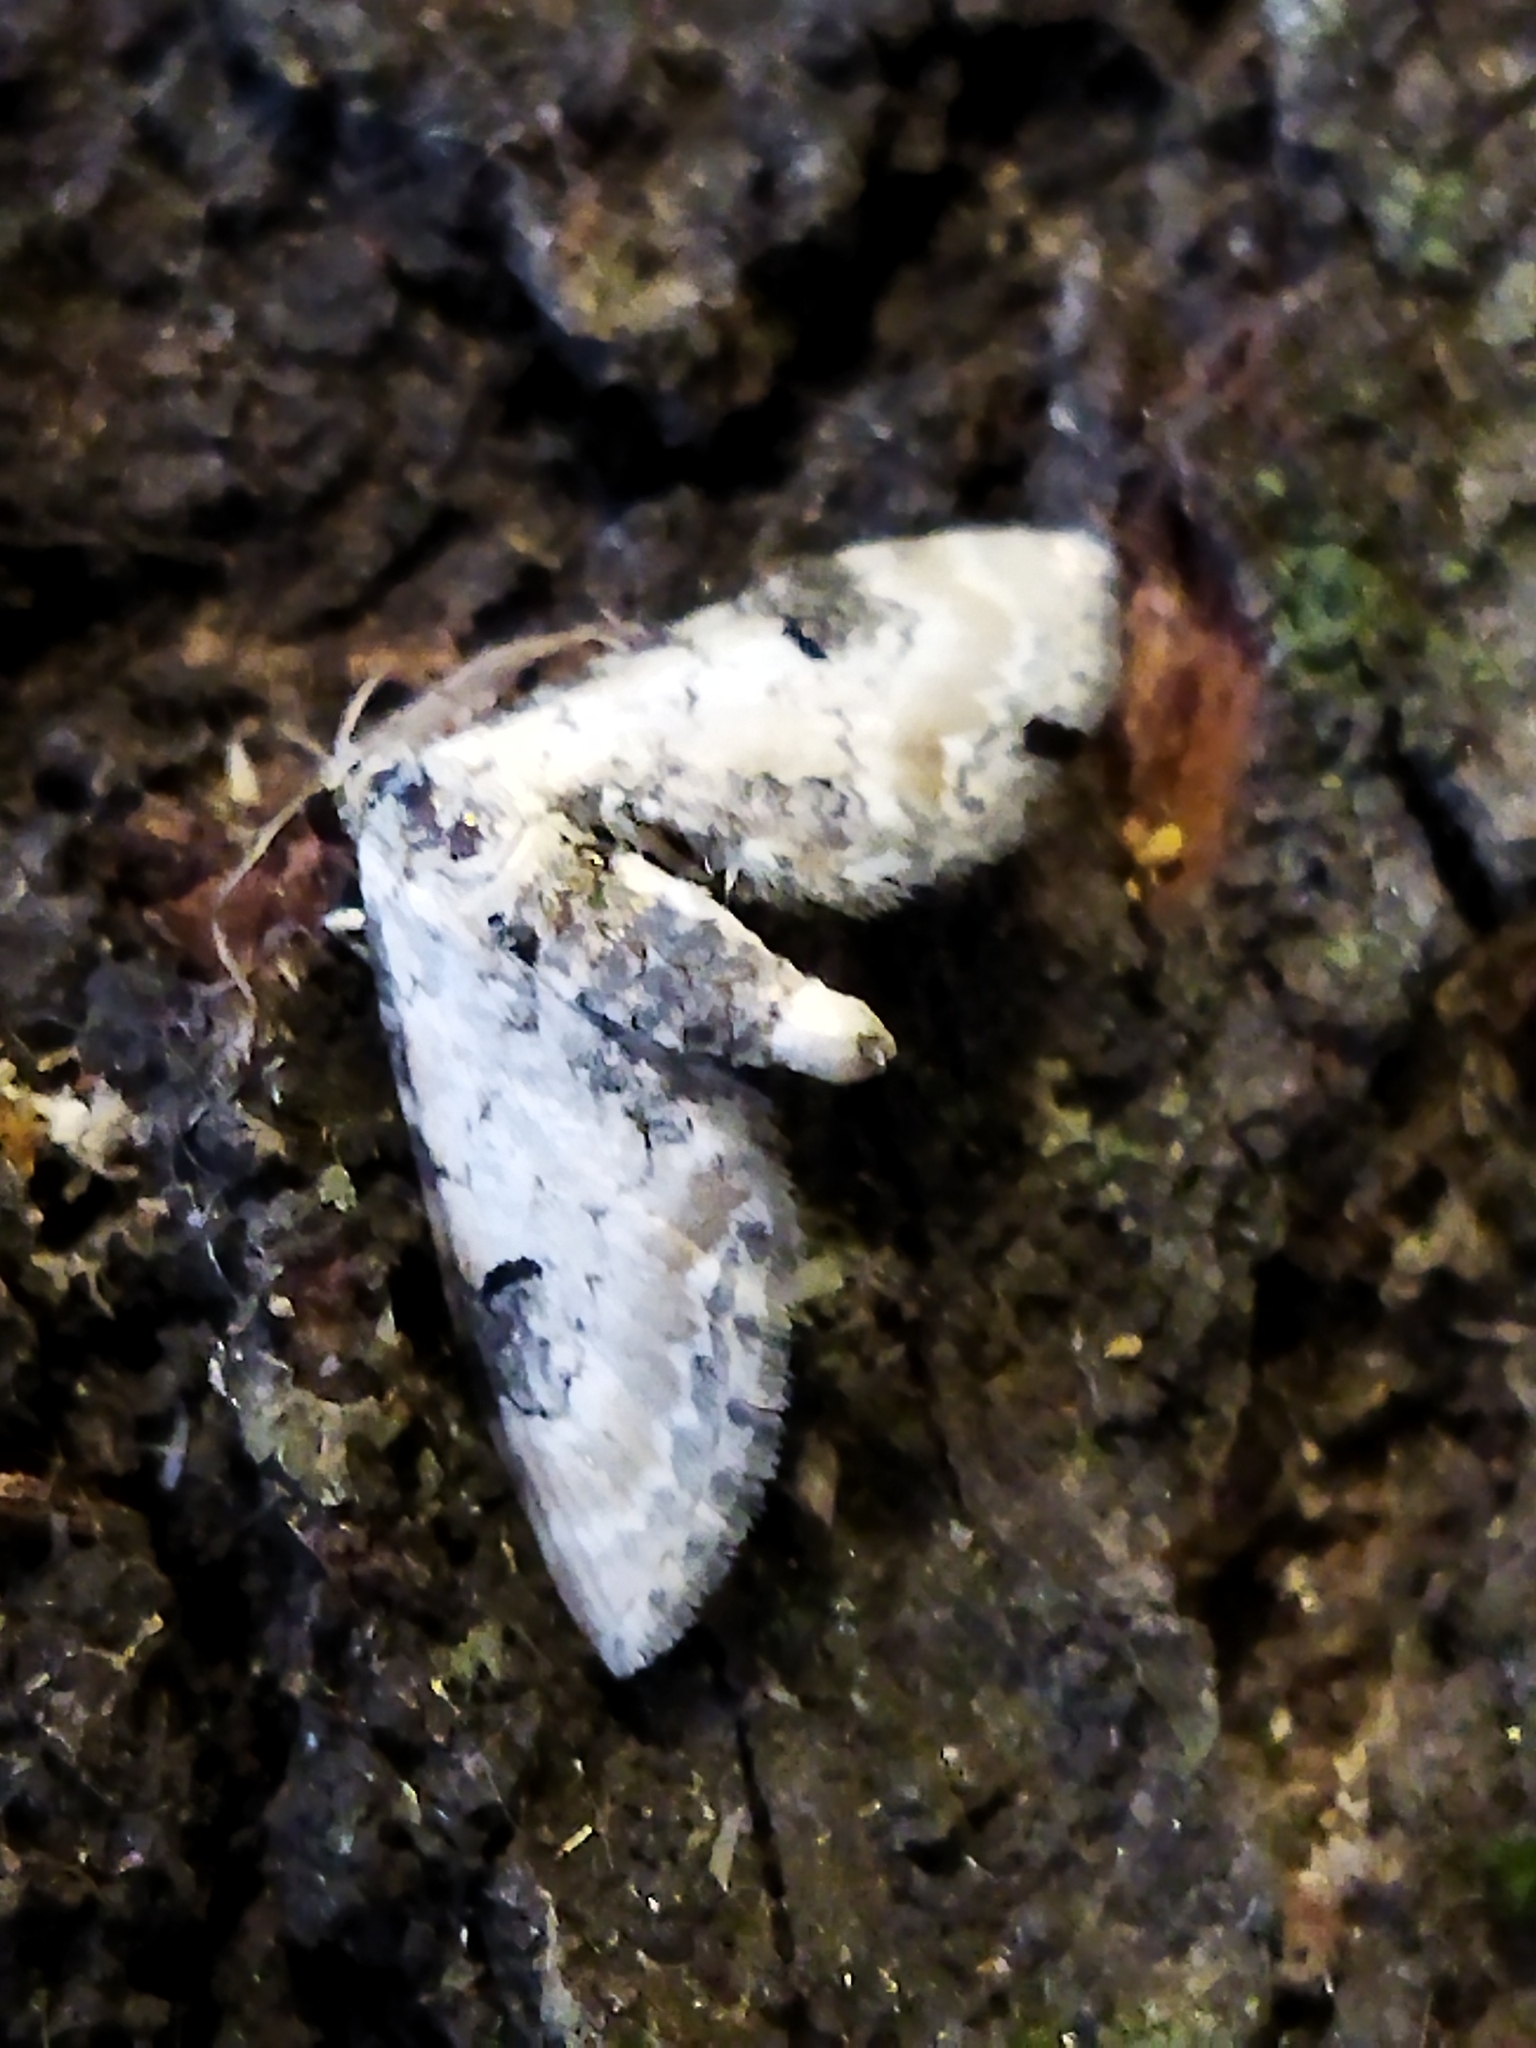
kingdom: Animalia
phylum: Arthropoda
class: Insecta
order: Lepidoptera
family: Geometridae
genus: Eupithecia
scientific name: Eupithecia centaureata
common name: Lime-speck pug
